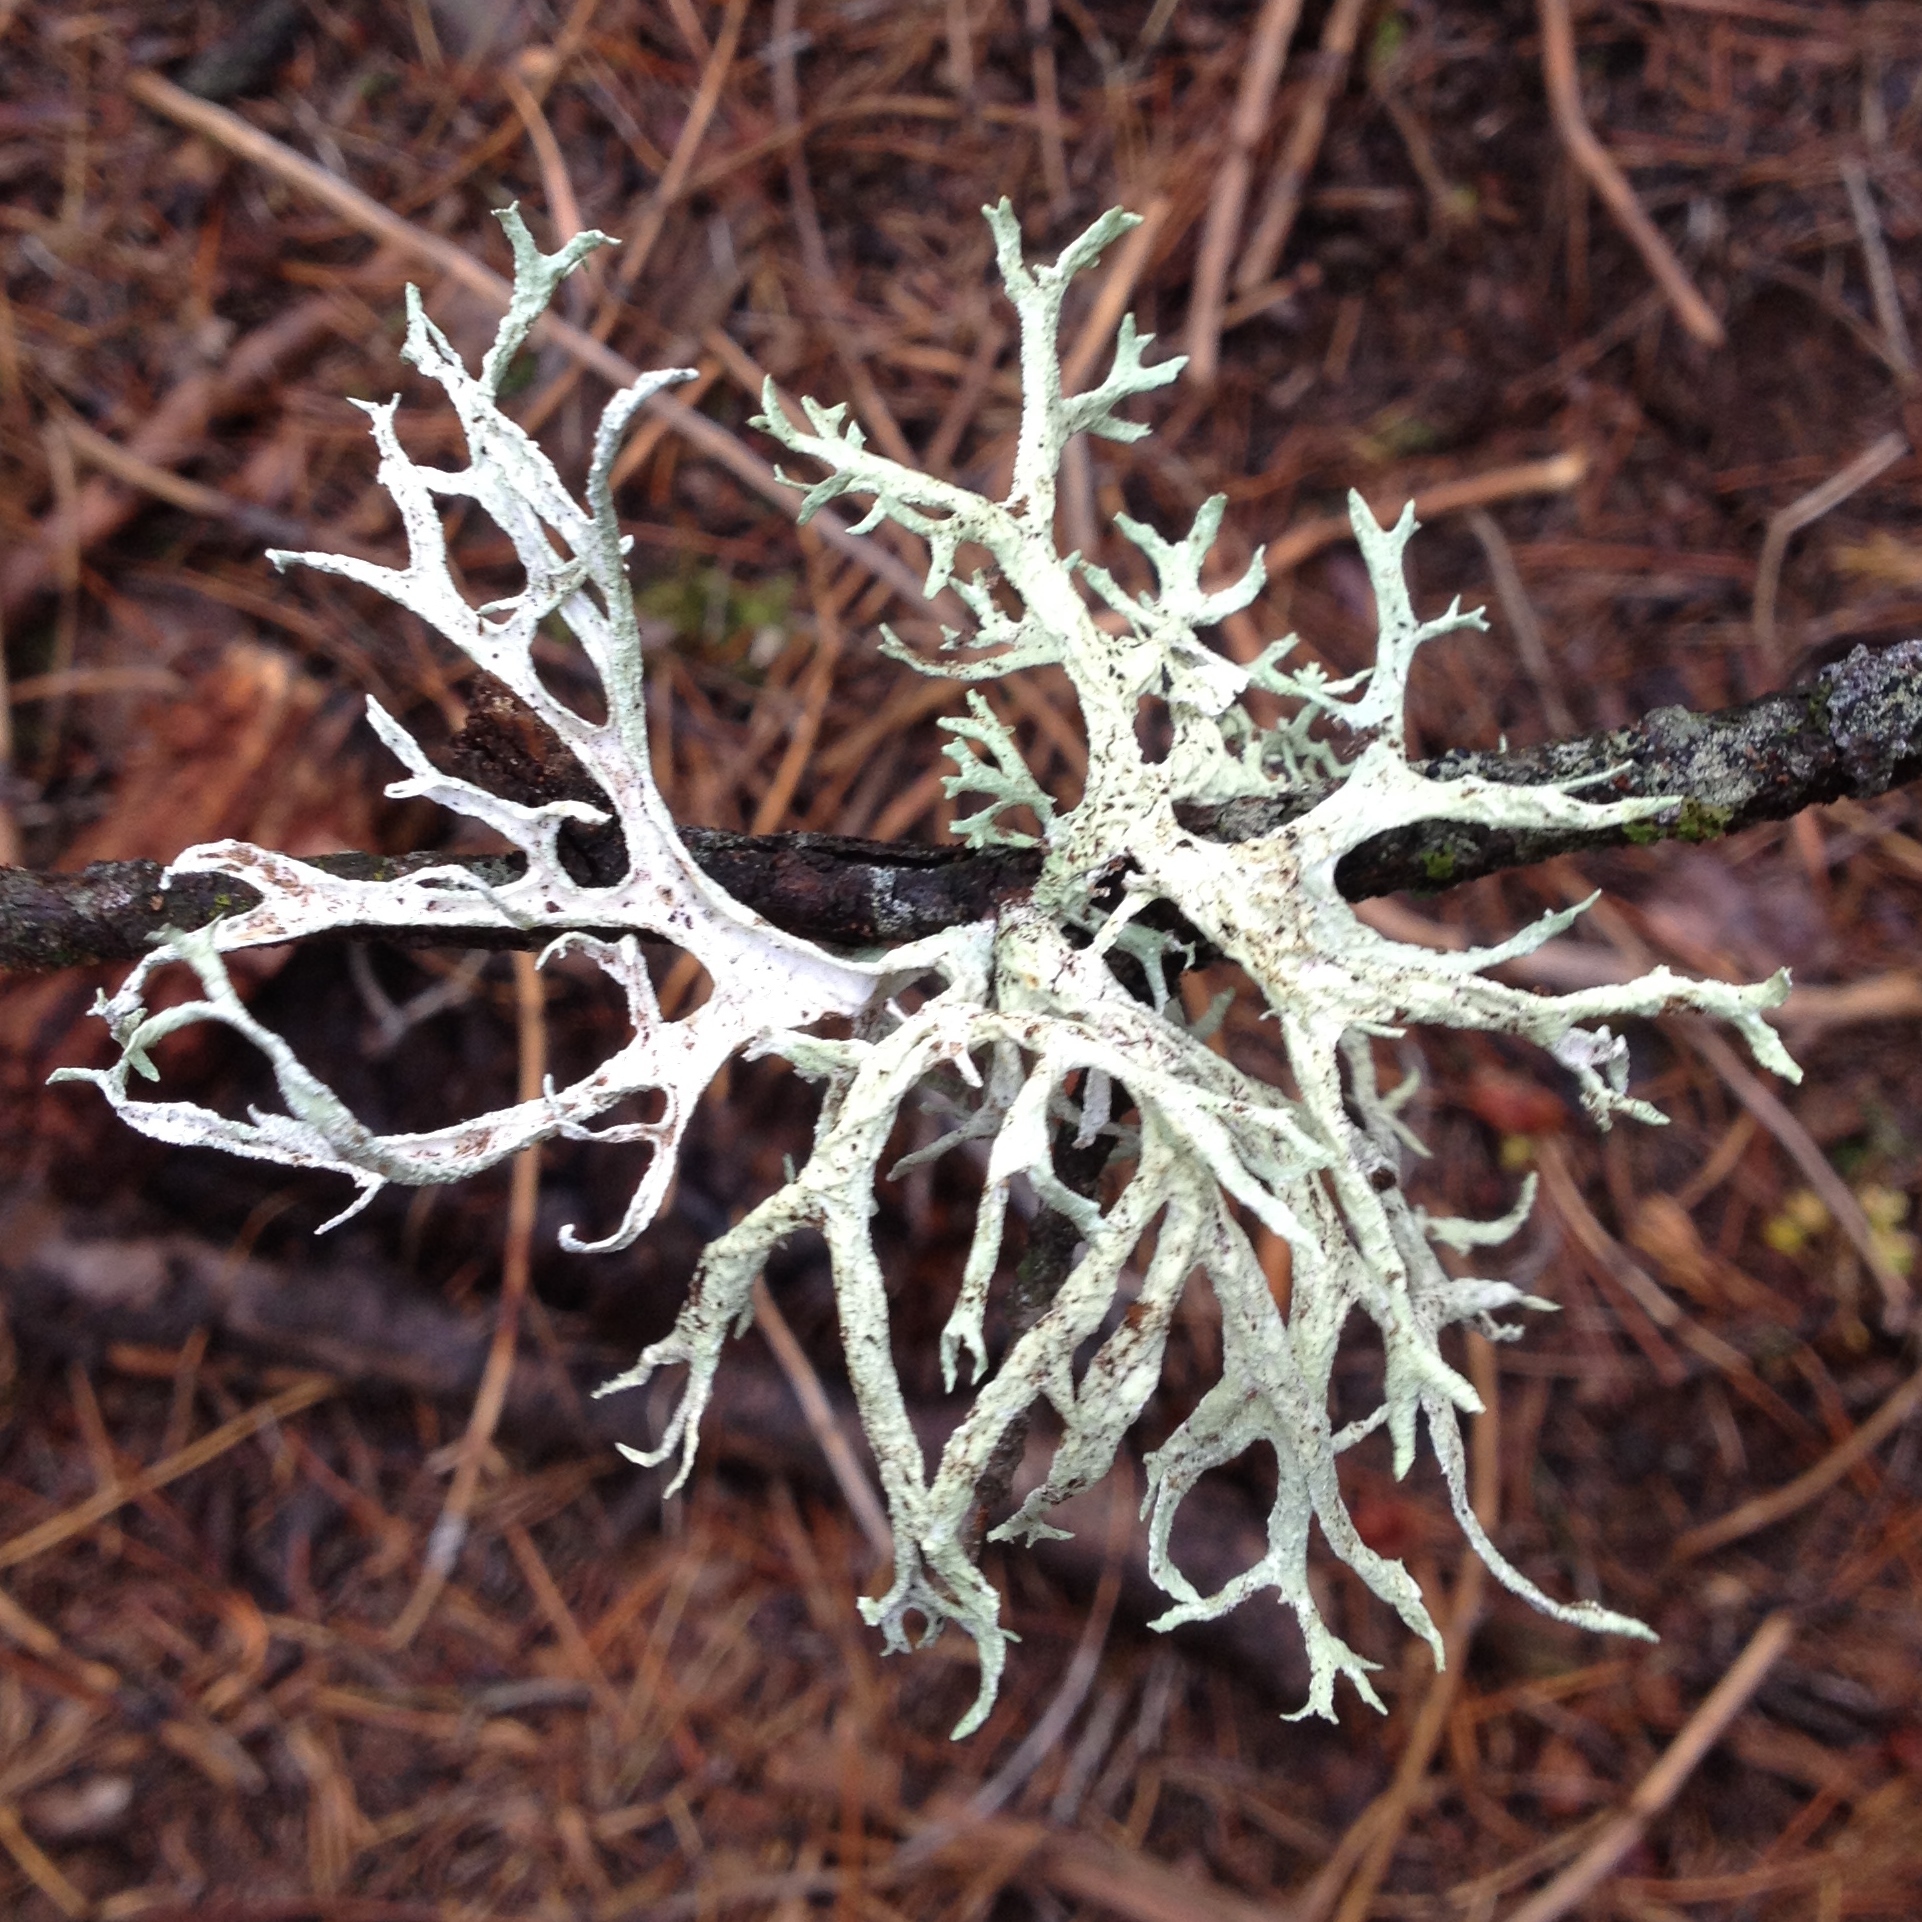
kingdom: Fungi
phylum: Ascomycota
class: Lecanoromycetes
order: Lecanorales
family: Parmeliaceae
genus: Evernia
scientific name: Evernia prunastri
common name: Oak moss
